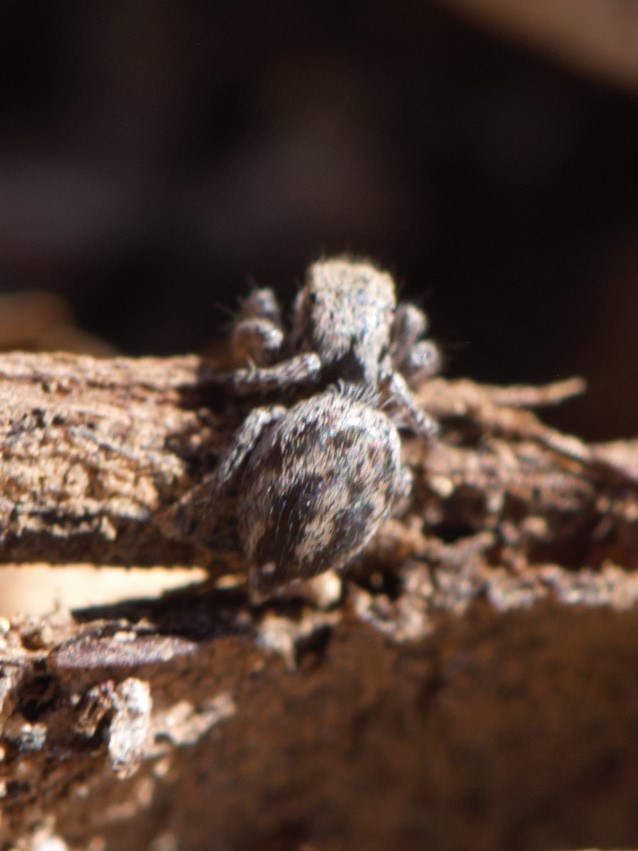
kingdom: Animalia
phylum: Arthropoda
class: Arachnida
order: Araneae
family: Salticidae
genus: Habronattus
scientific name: Habronattus festus
